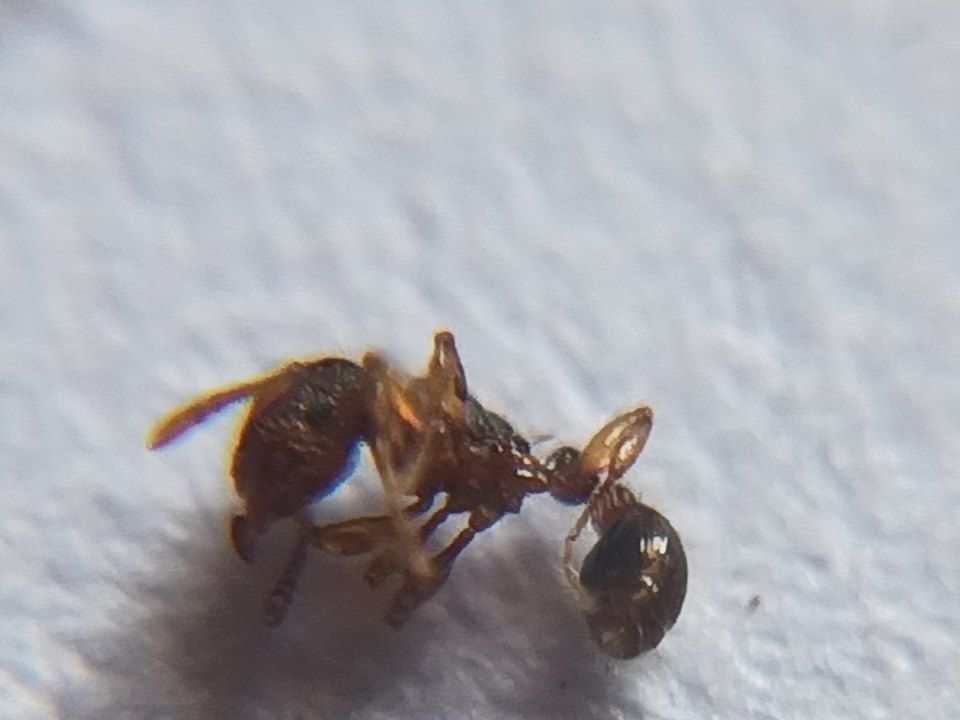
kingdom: Animalia
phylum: Arthropoda
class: Insecta
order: Hymenoptera
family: Formicidae
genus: Tetramorium
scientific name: Tetramorium lanuginosum
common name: Ant
